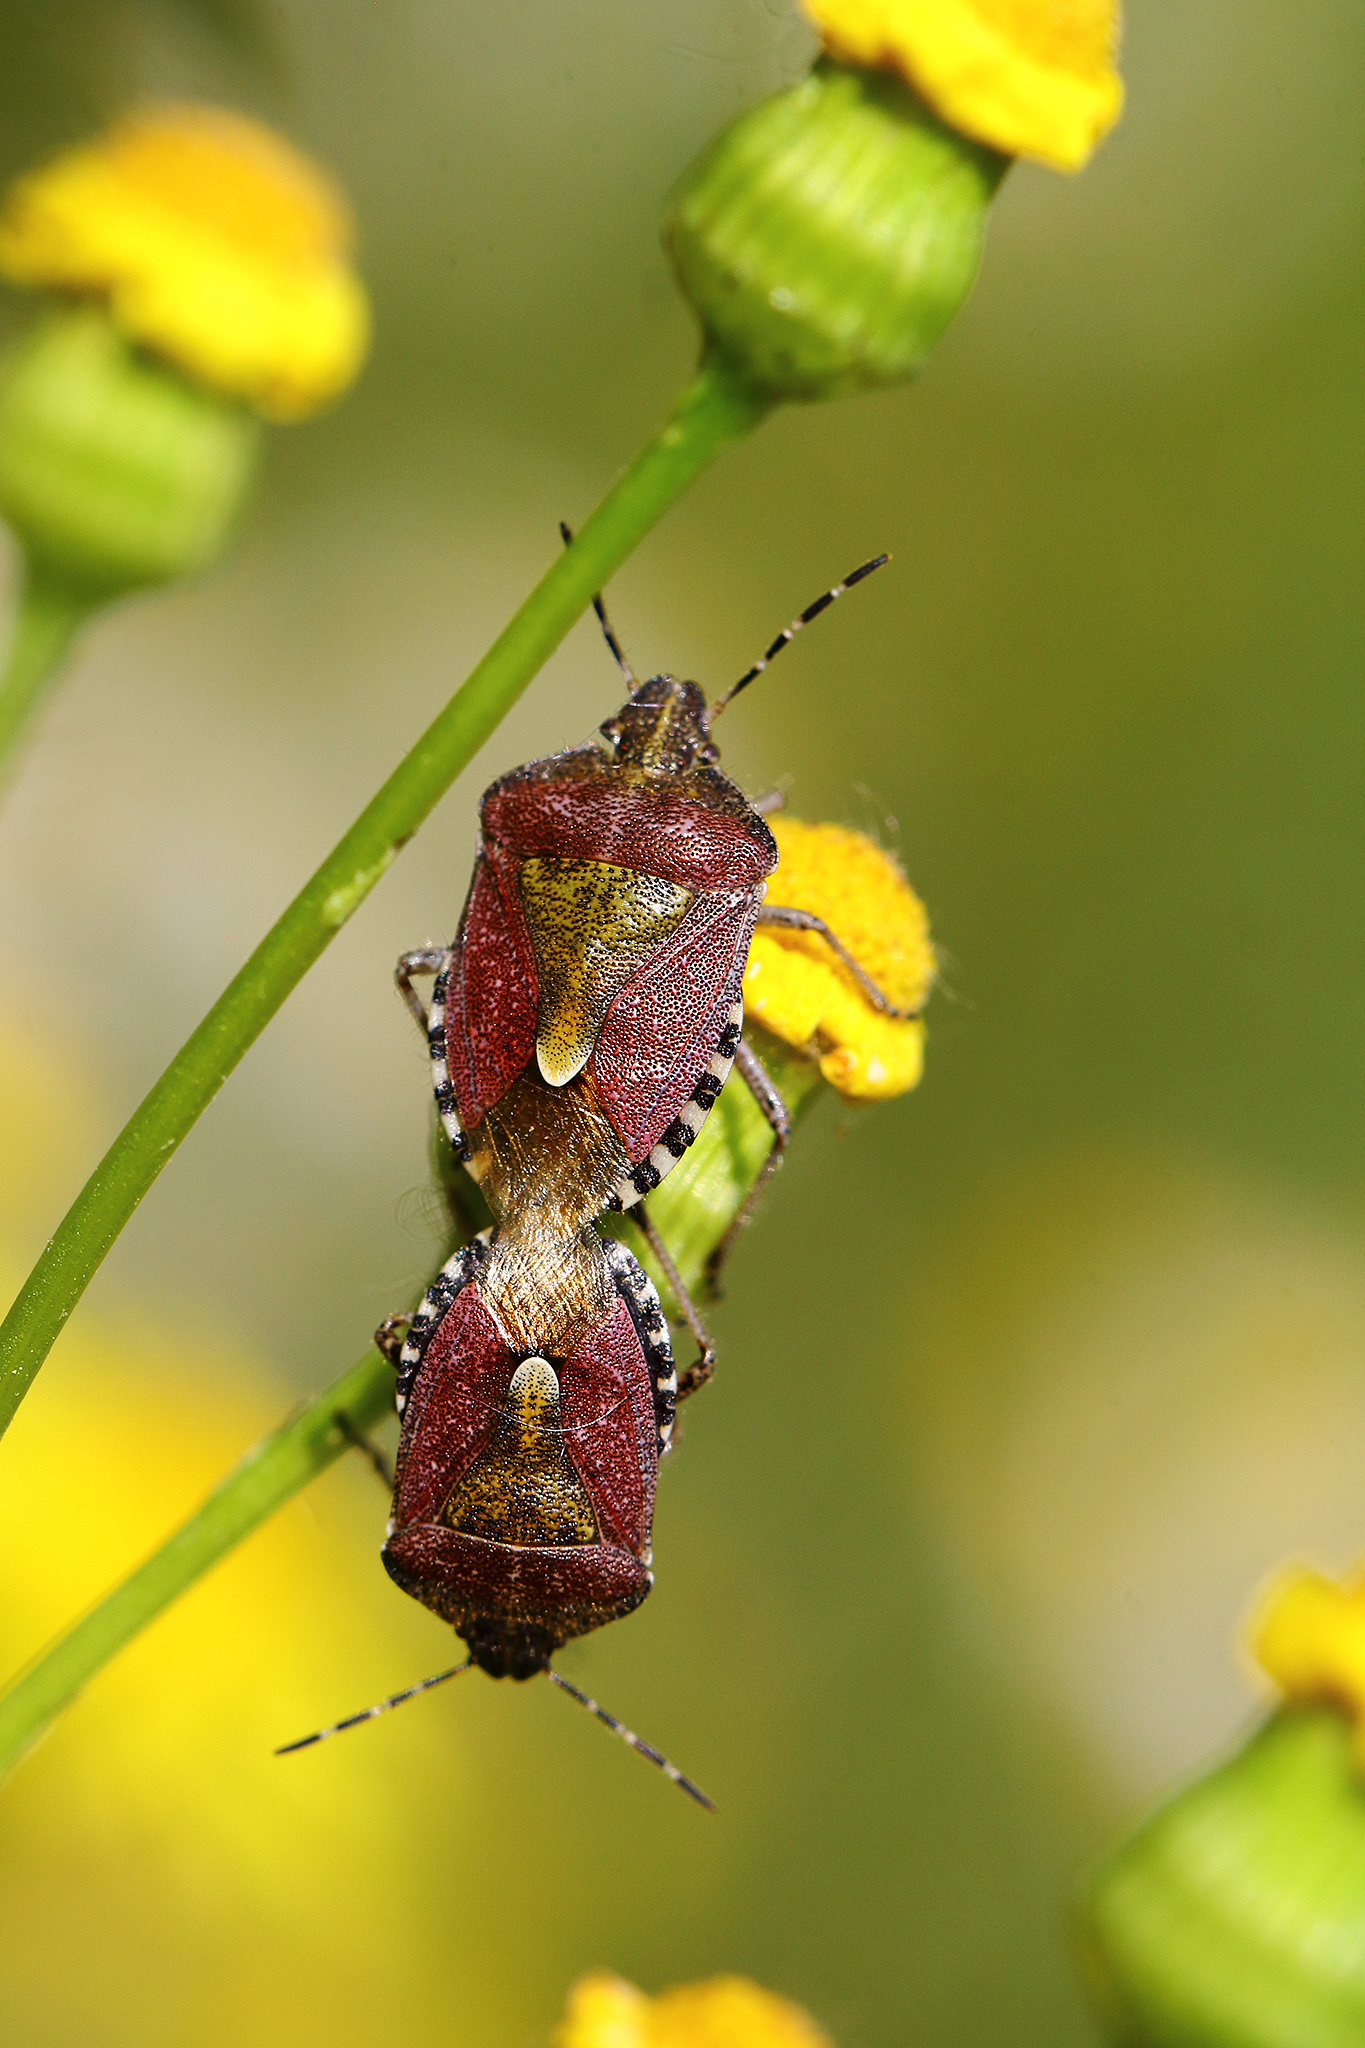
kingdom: Animalia
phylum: Arthropoda
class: Insecta
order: Hemiptera
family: Pentatomidae
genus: Dolycoris
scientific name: Dolycoris baccarum
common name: Sloe bug
